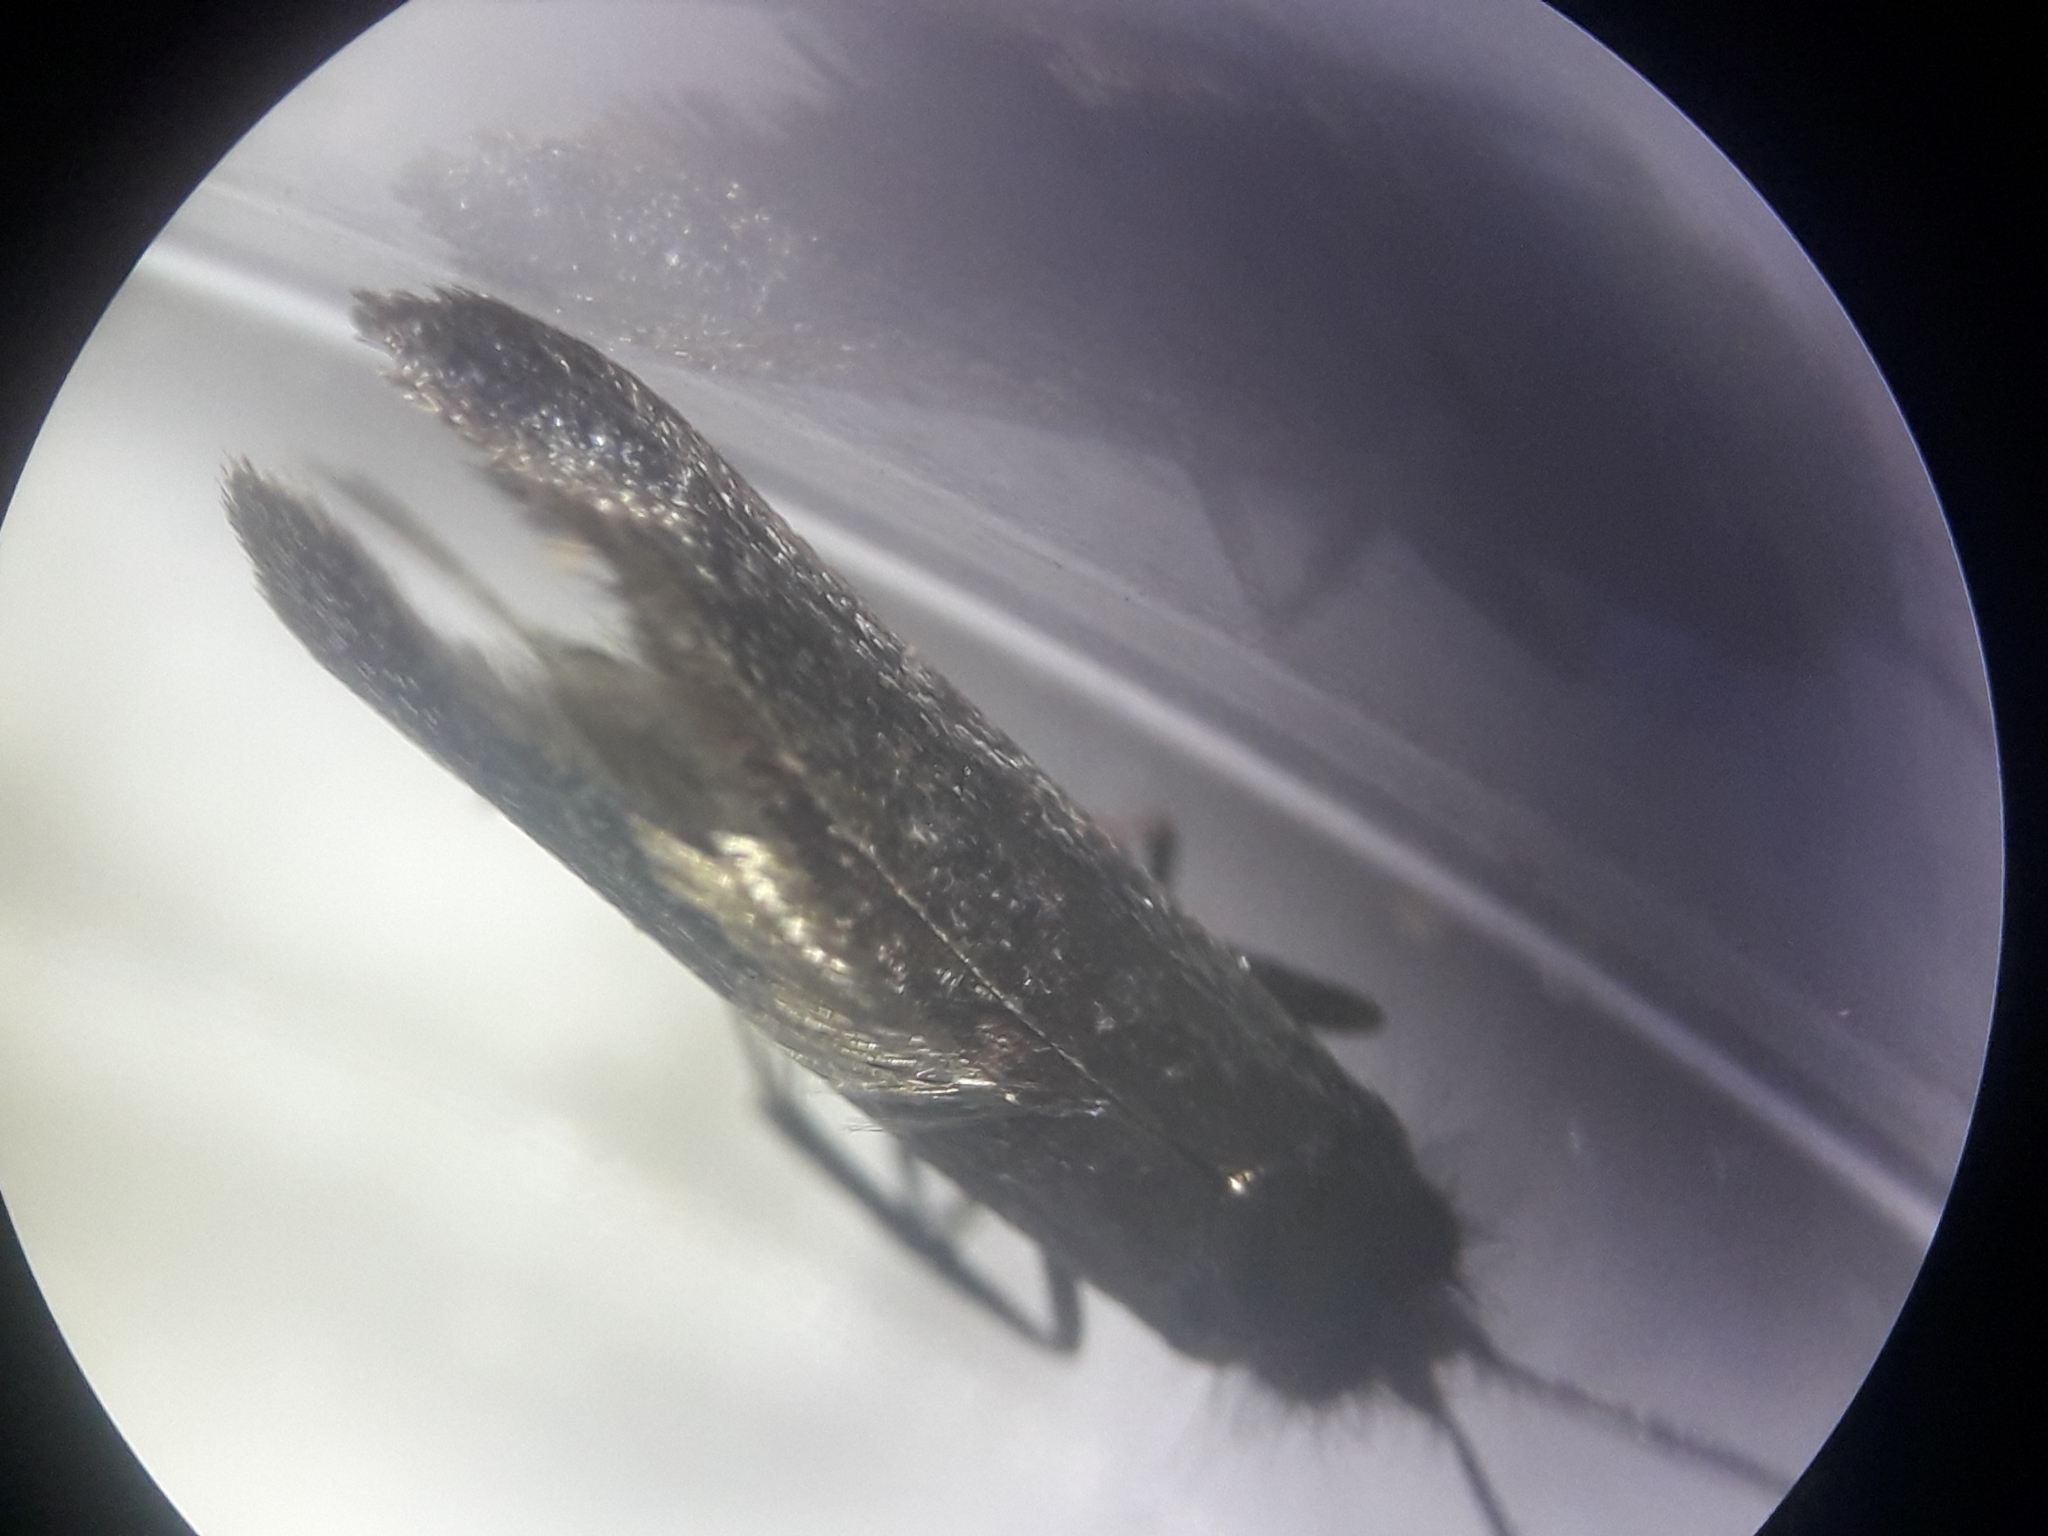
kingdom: Animalia
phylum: Arthropoda
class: Insecta
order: Lepidoptera
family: Adelidae
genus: Adela
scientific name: Adela viridella
